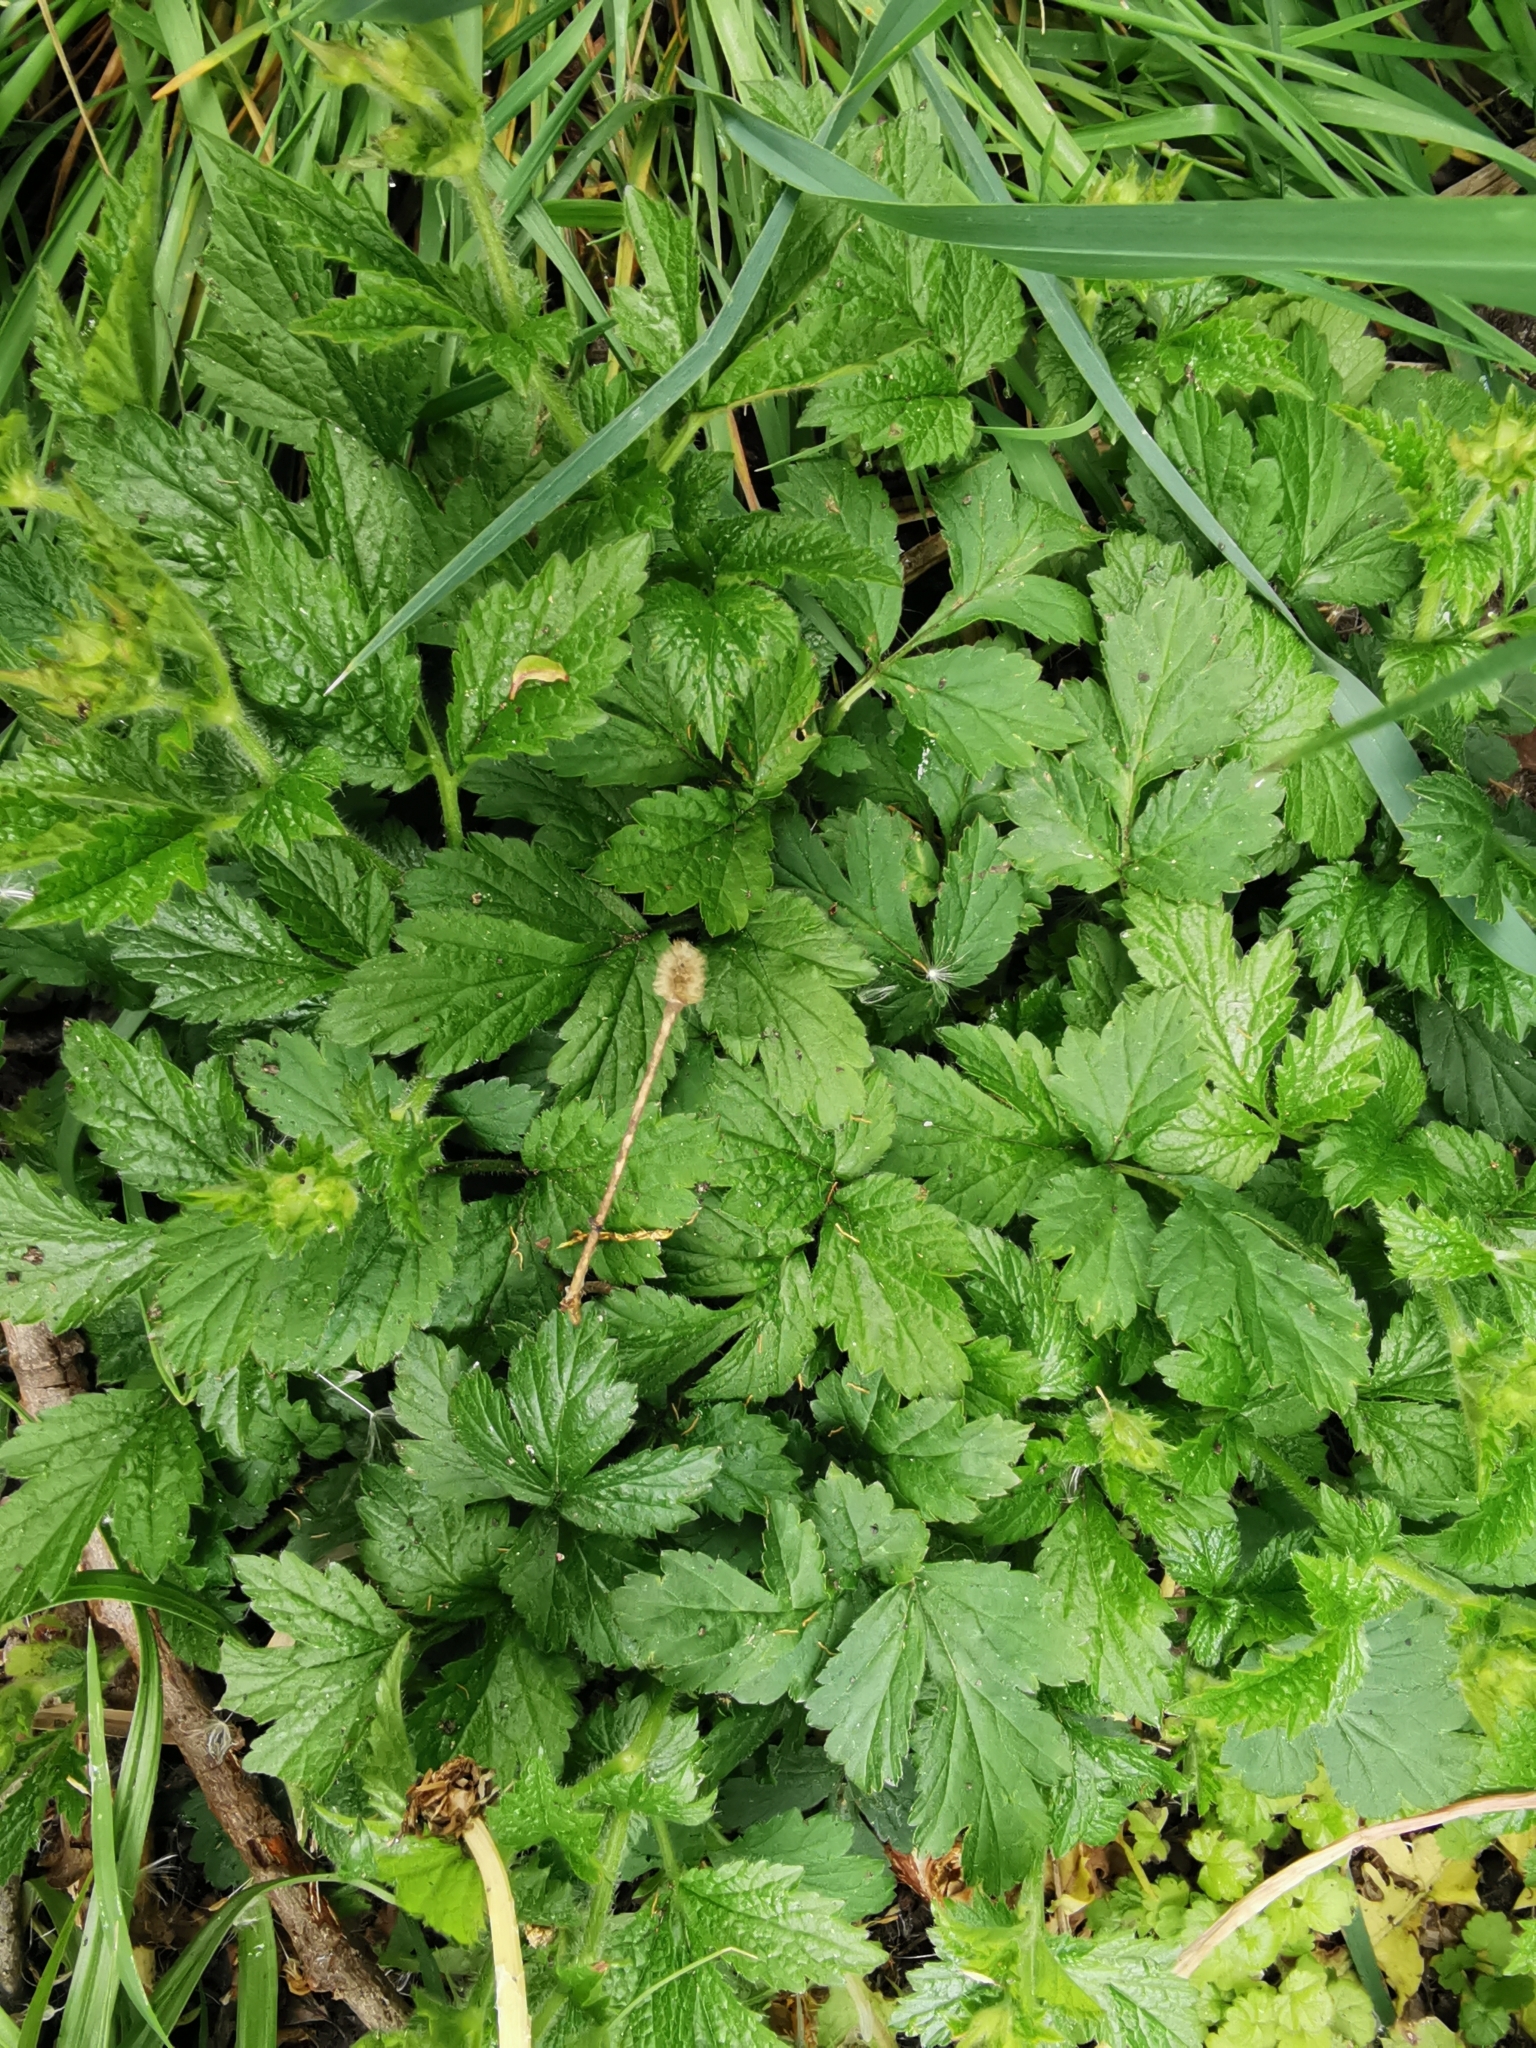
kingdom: Plantae
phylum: Tracheophyta
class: Magnoliopsida
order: Rosales
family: Rosaceae
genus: Geum
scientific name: Geum urbanum
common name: Wood avens
